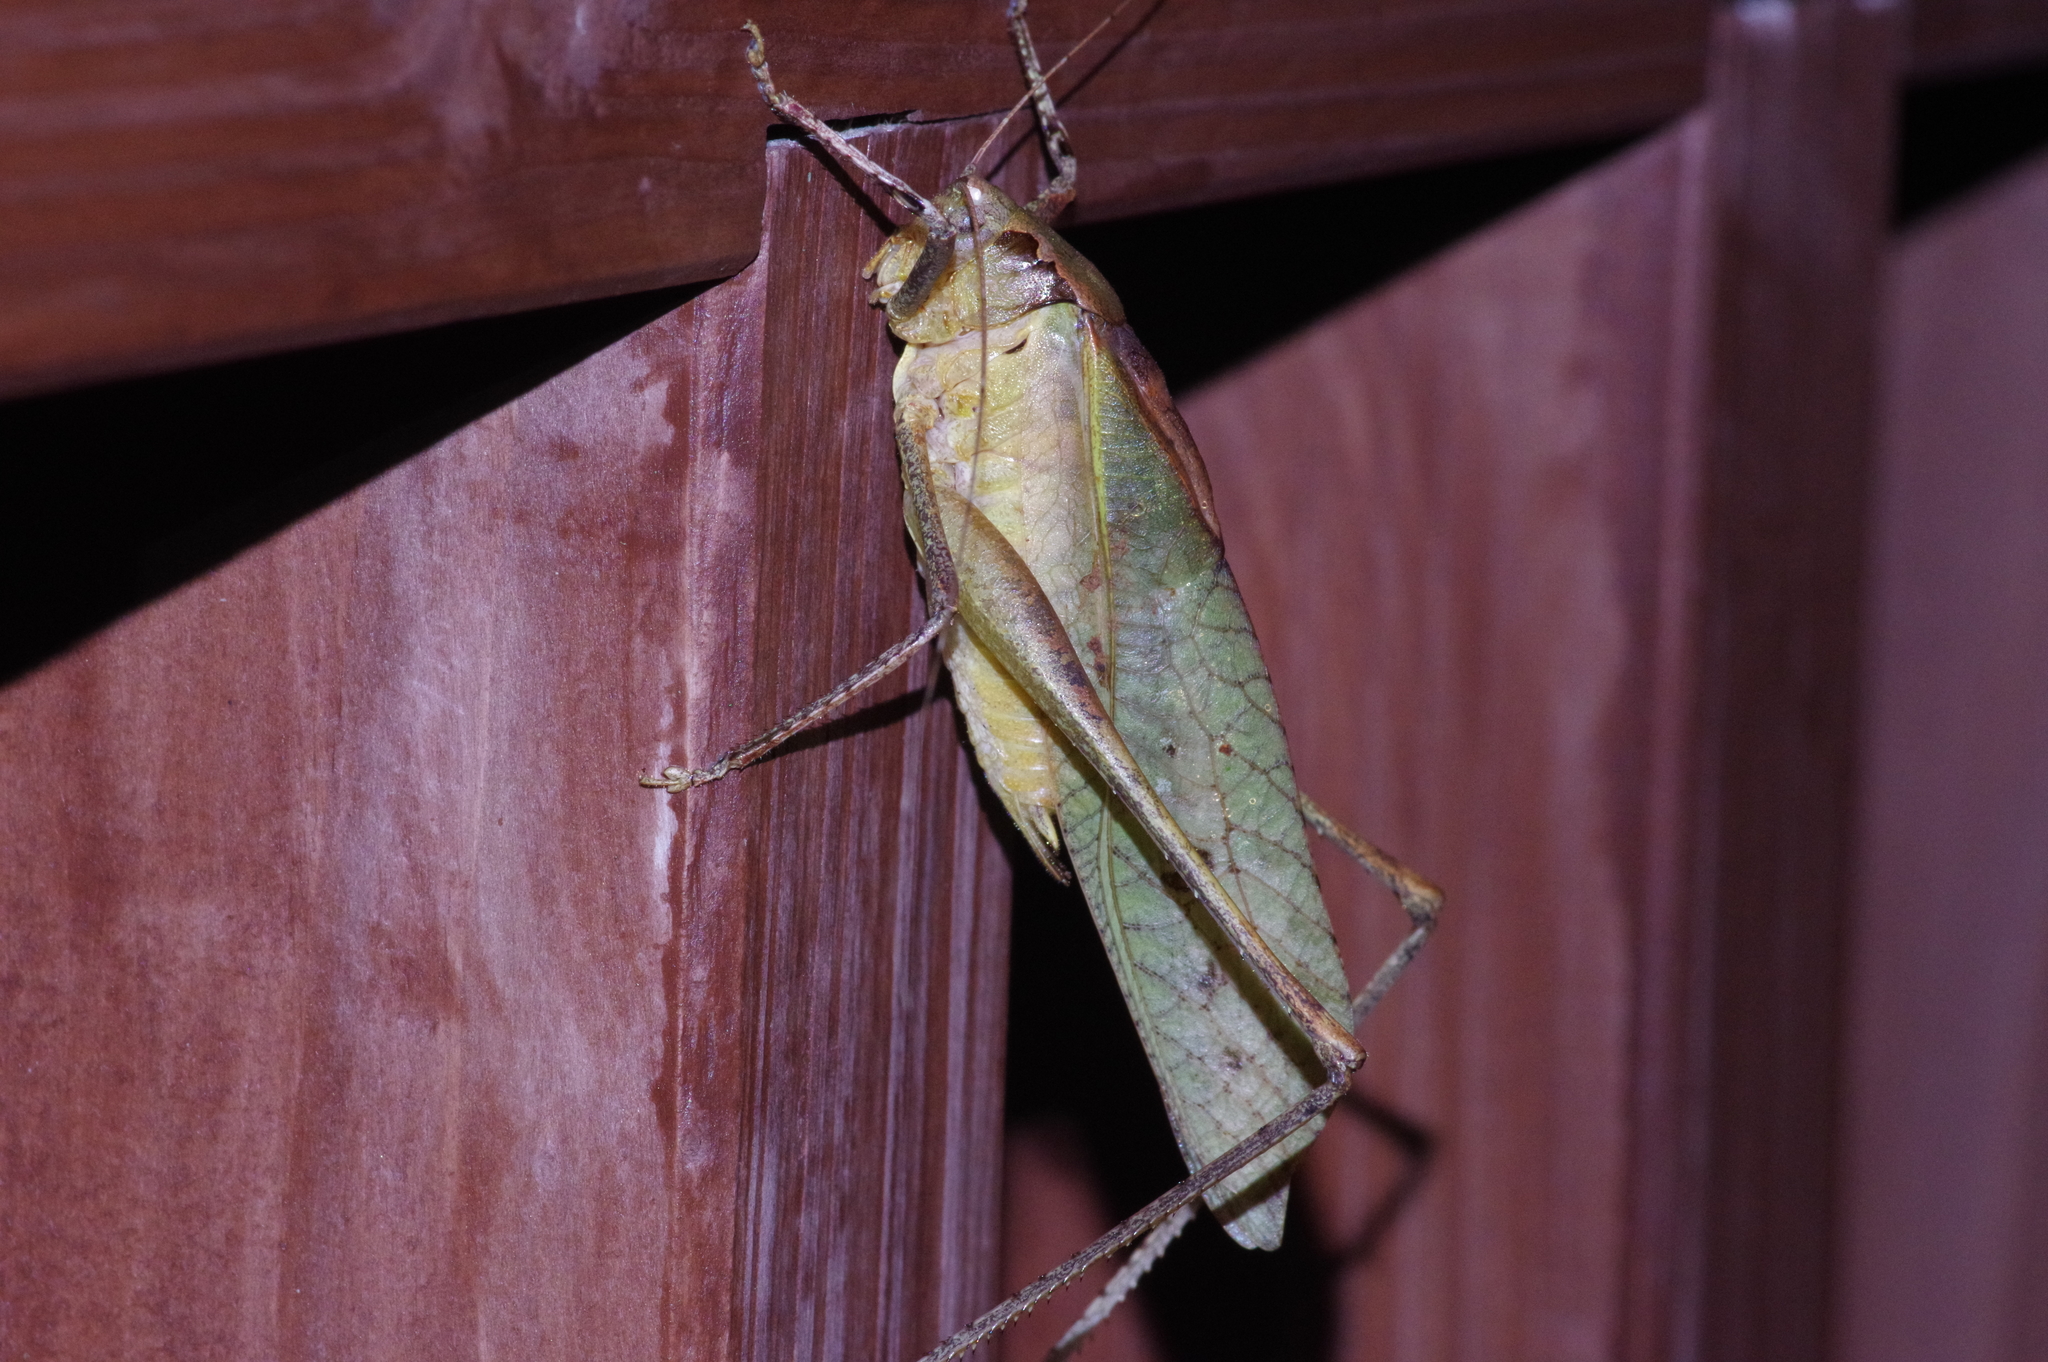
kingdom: Animalia
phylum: Arthropoda
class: Insecta
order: Orthoptera
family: Tettigoniidae
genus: Mecopoda
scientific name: Mecopoda elongata
